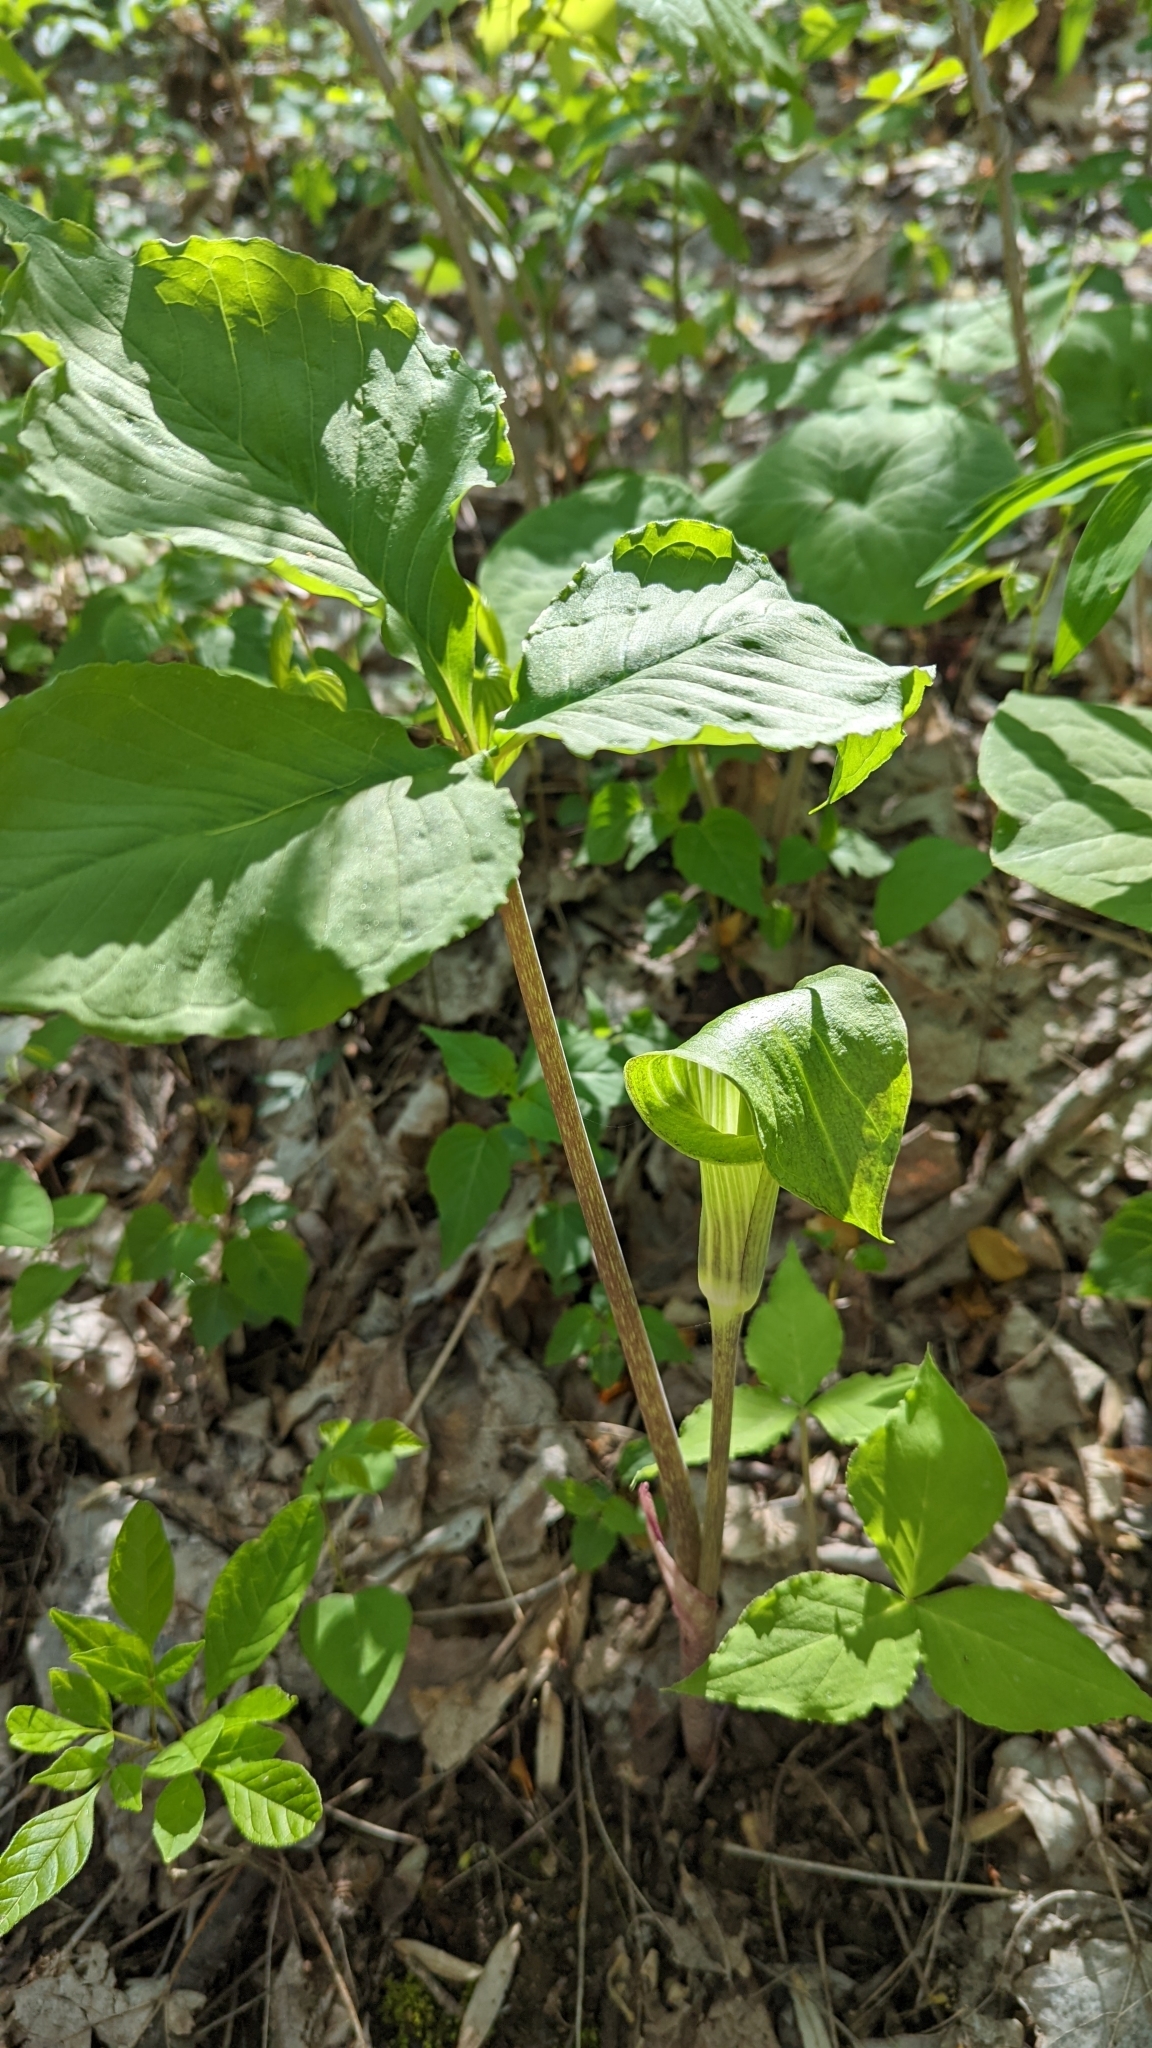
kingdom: Plantae
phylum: Tracheophyta
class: Liliopsida
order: Alismatales
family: Araceae
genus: Arisaema
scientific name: Arisaema triphyllum
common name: Jack-in-the-pulpit
